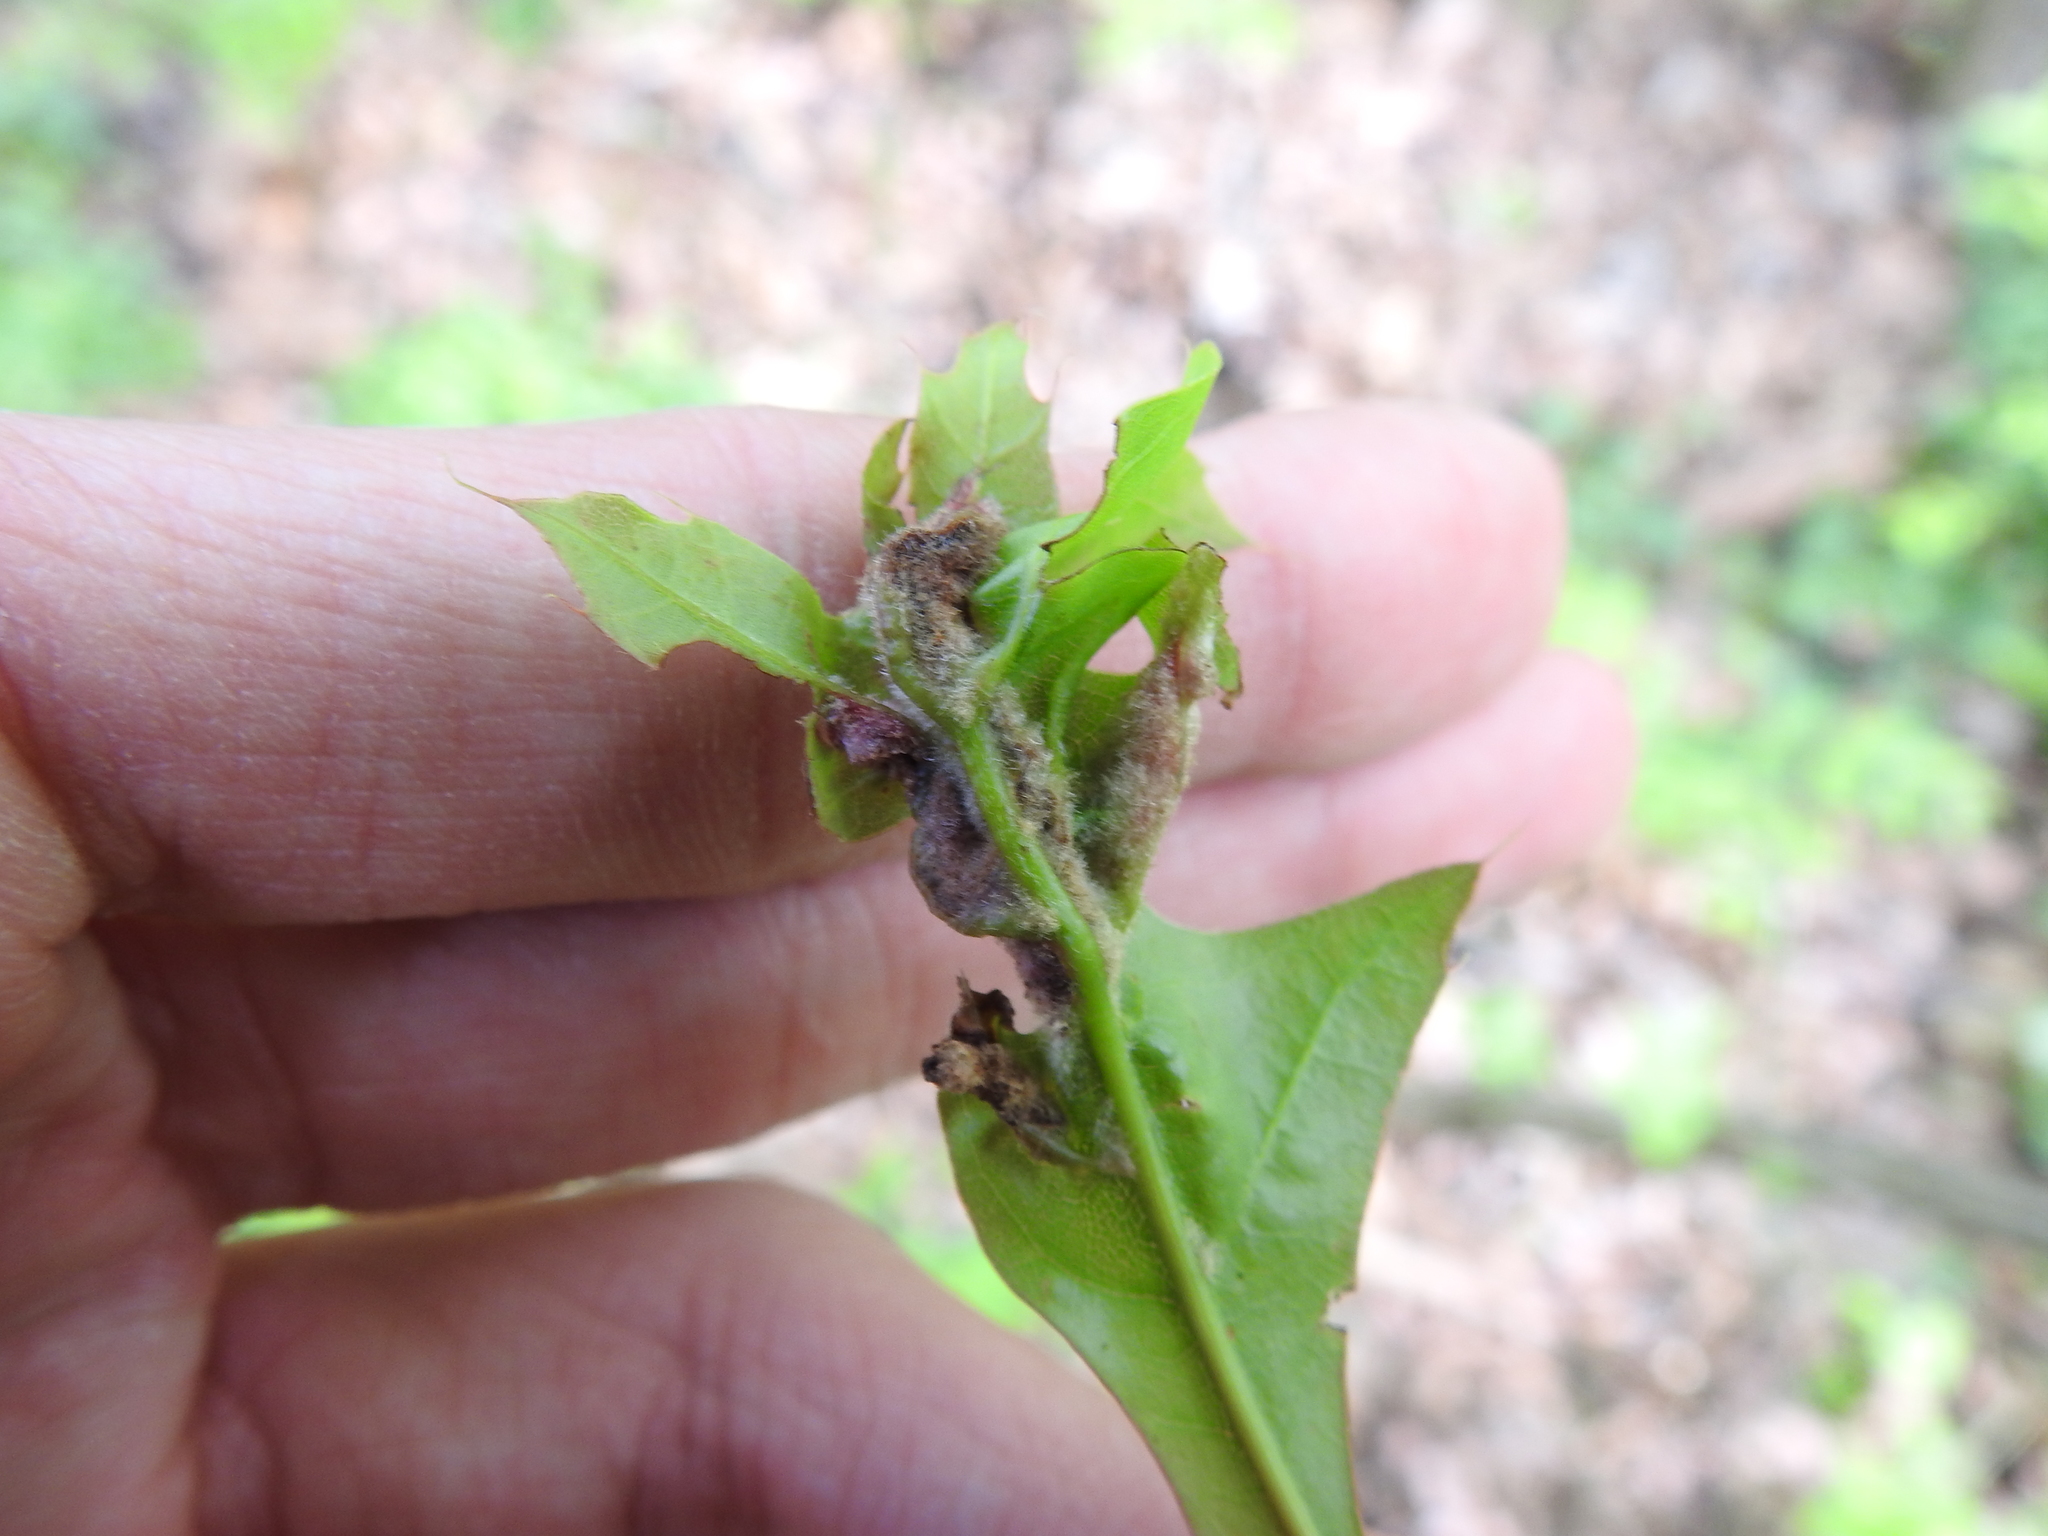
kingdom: Animalia
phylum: Arthropoda
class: Insecta
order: Diptera
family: Cecidomyiidae
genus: Macrodiplosis
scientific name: Macrodiplosis niveipila
